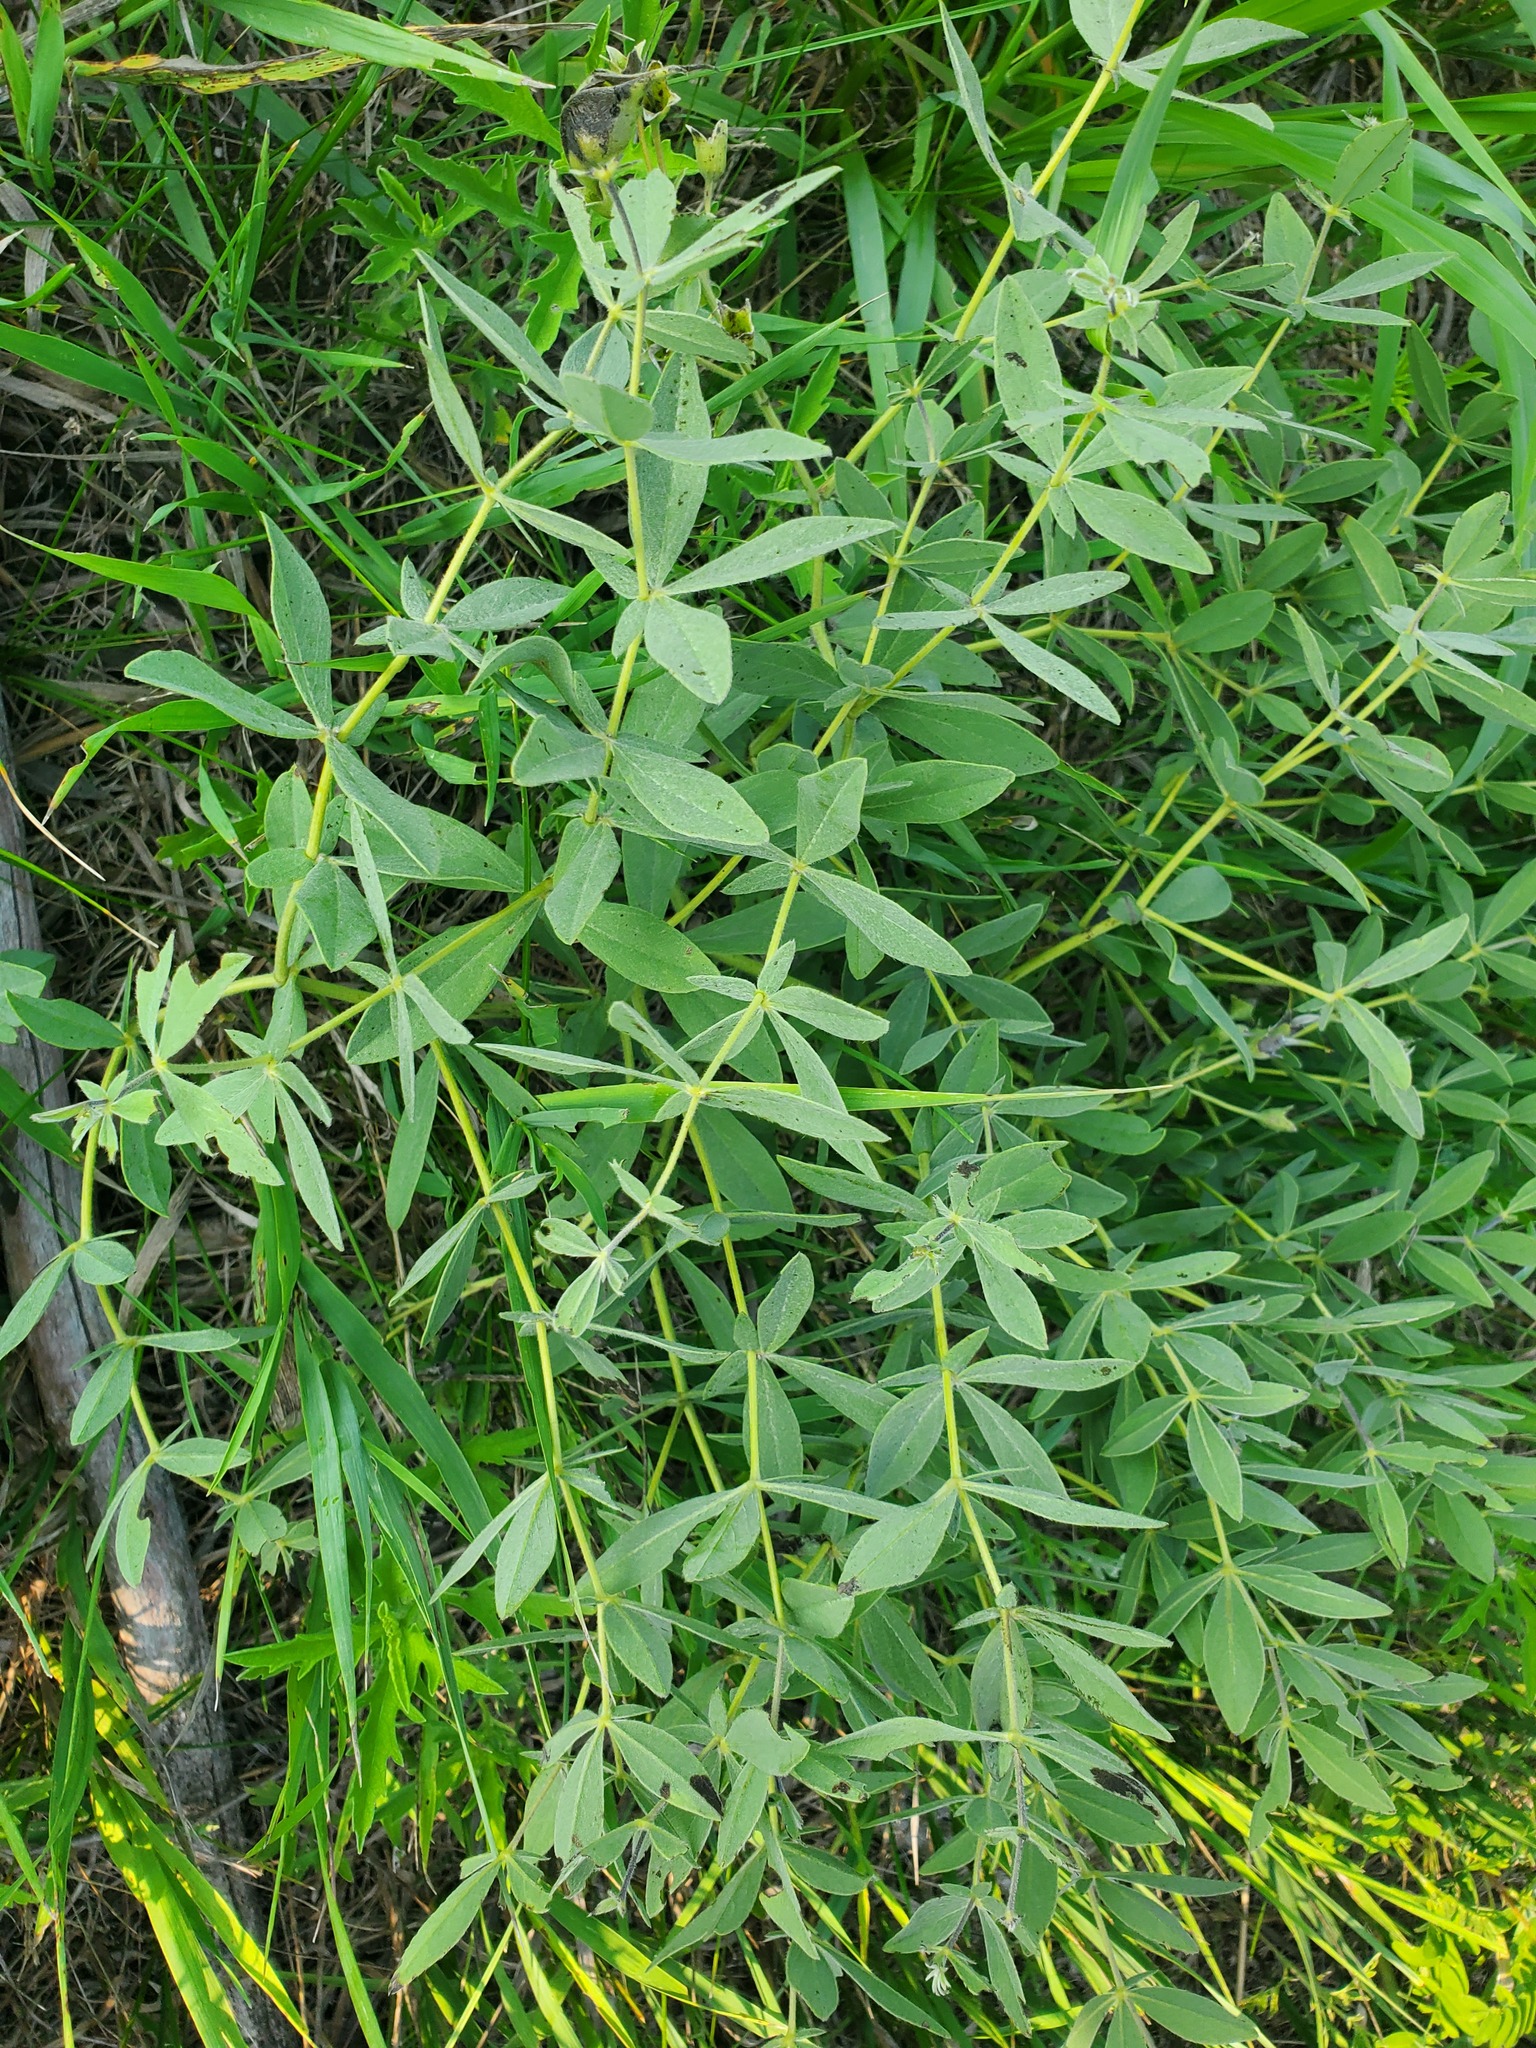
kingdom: Plantae
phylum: Tracheophyta
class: Magnoliopsida
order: Fabales
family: Fabaceae
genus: Baptisia
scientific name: Baptisia bracteata
